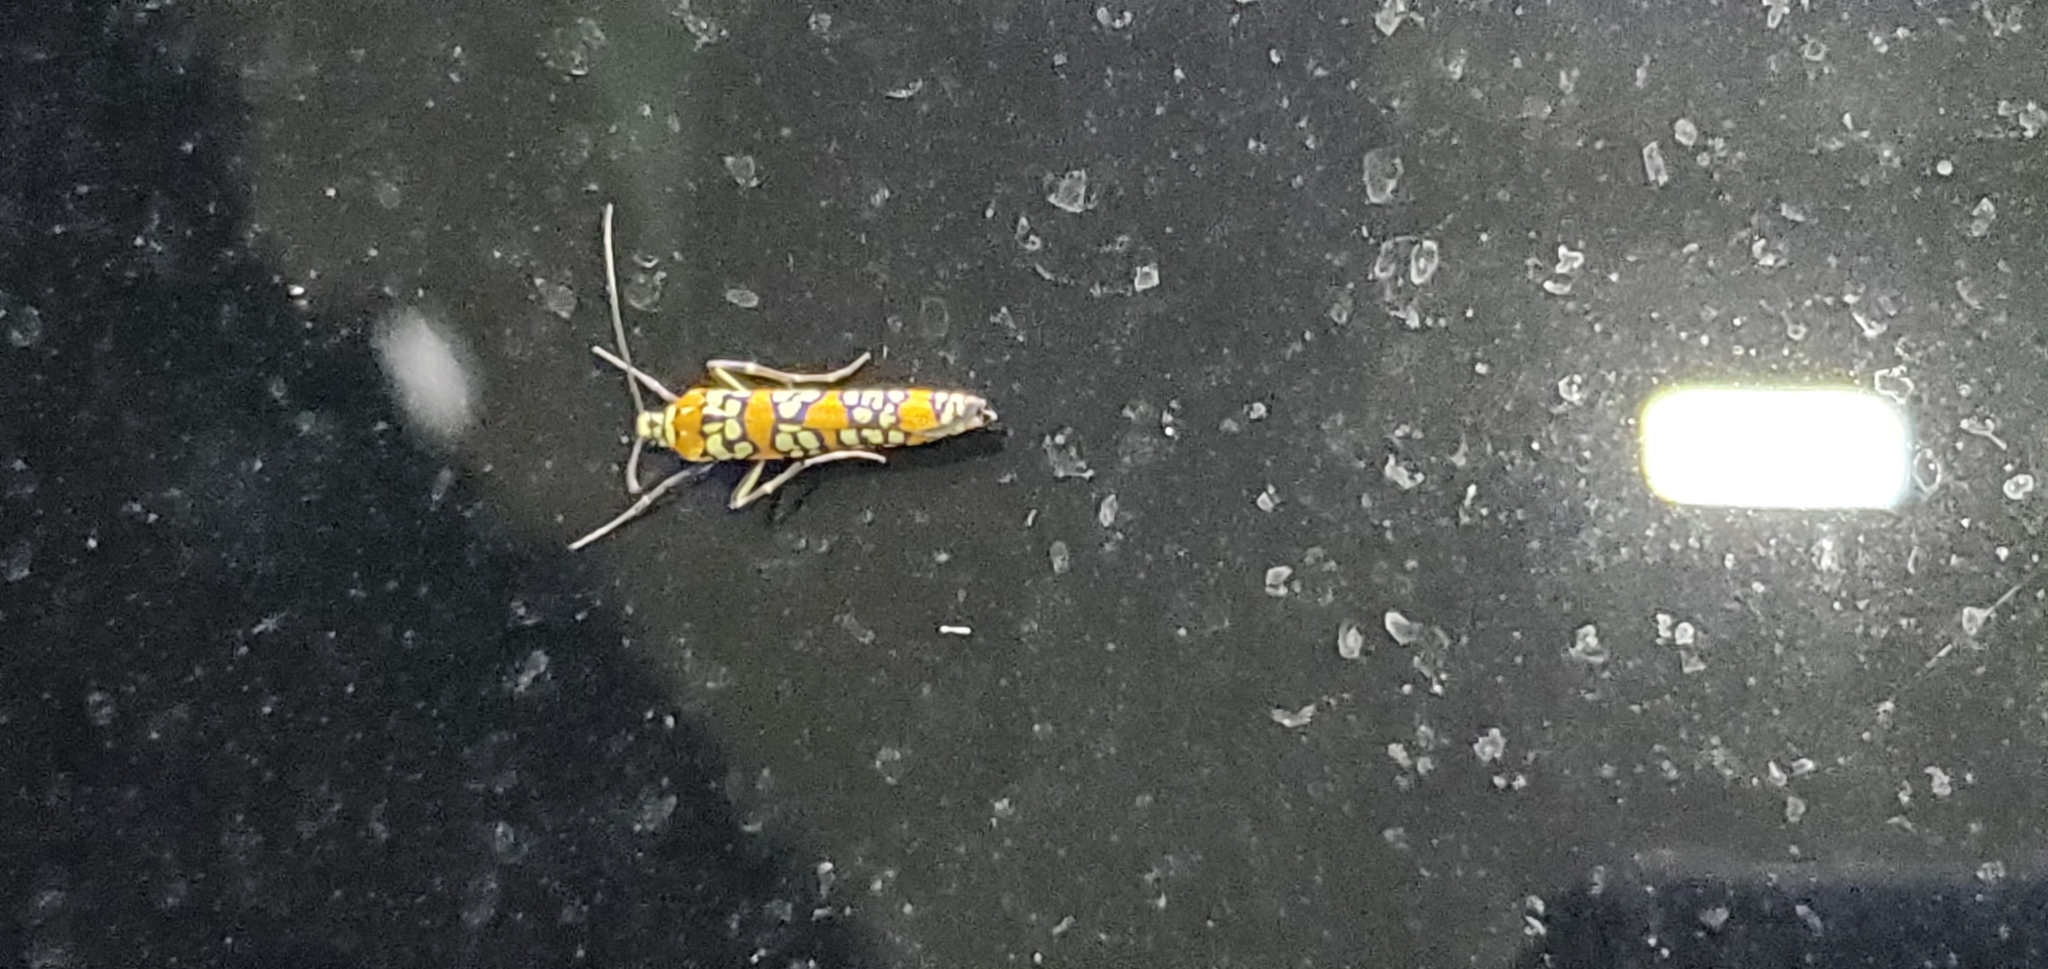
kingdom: Animalia
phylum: Arthropoda
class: Insecta
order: Lepidoptera
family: Attevidae
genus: Atteva
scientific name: Atteva punctella
